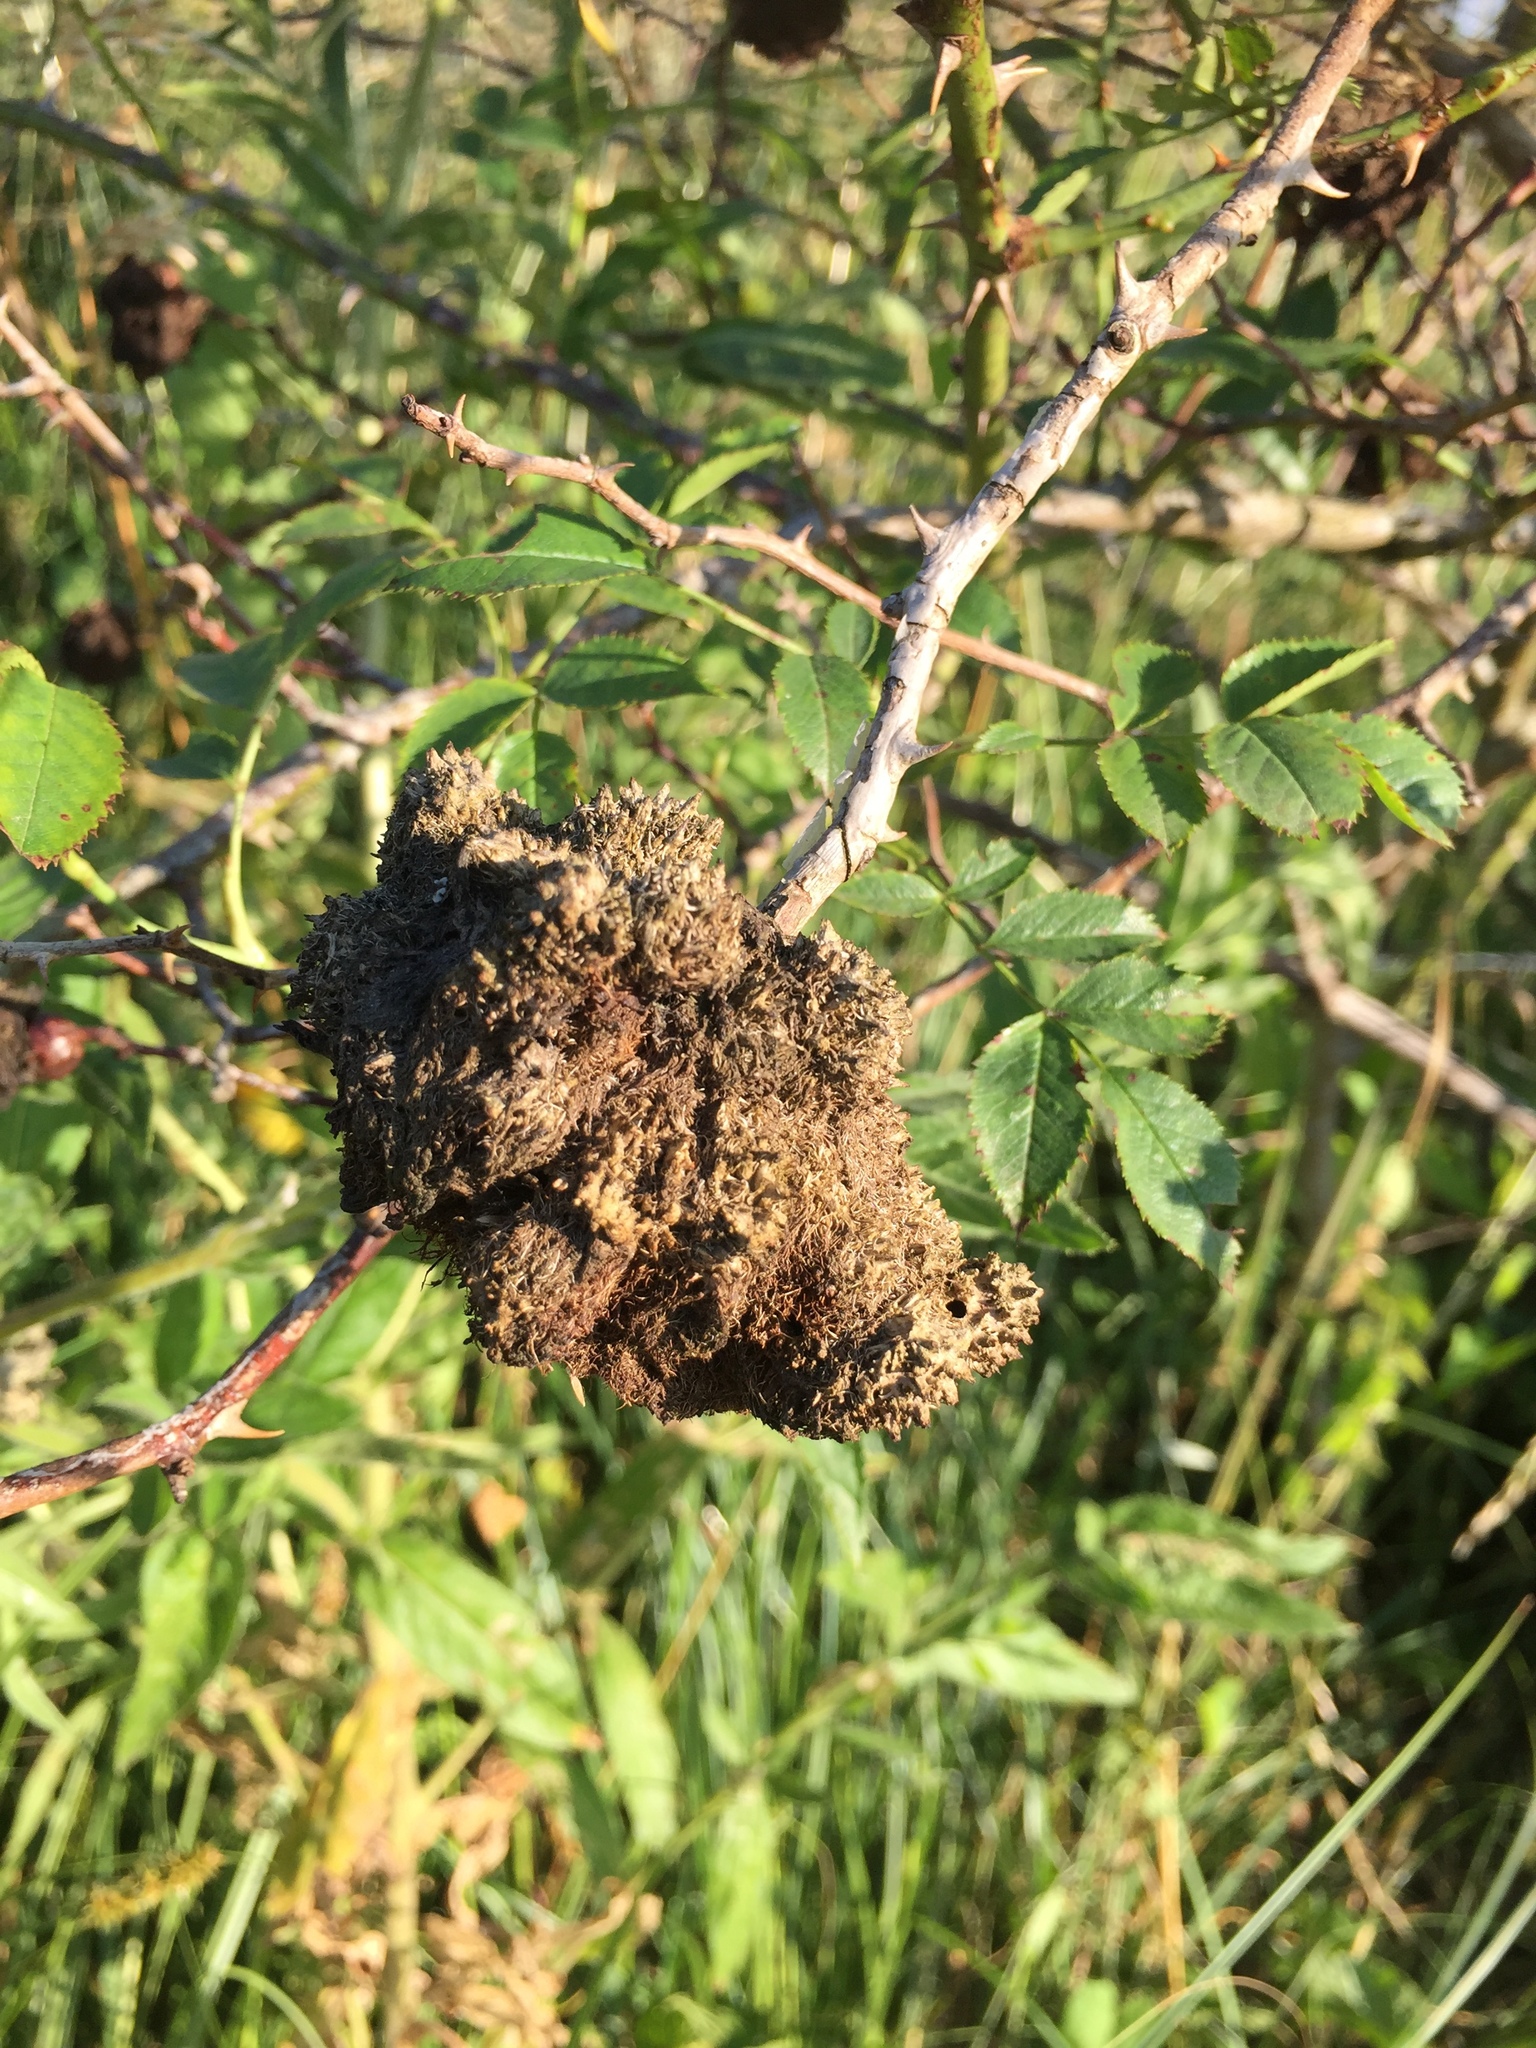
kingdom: Animalia
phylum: Arthropoda
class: Insecta
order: Hymenoptera
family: Cynipidae
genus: Diplolepis
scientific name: Diplolepis rosae
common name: Bedeguar gall
